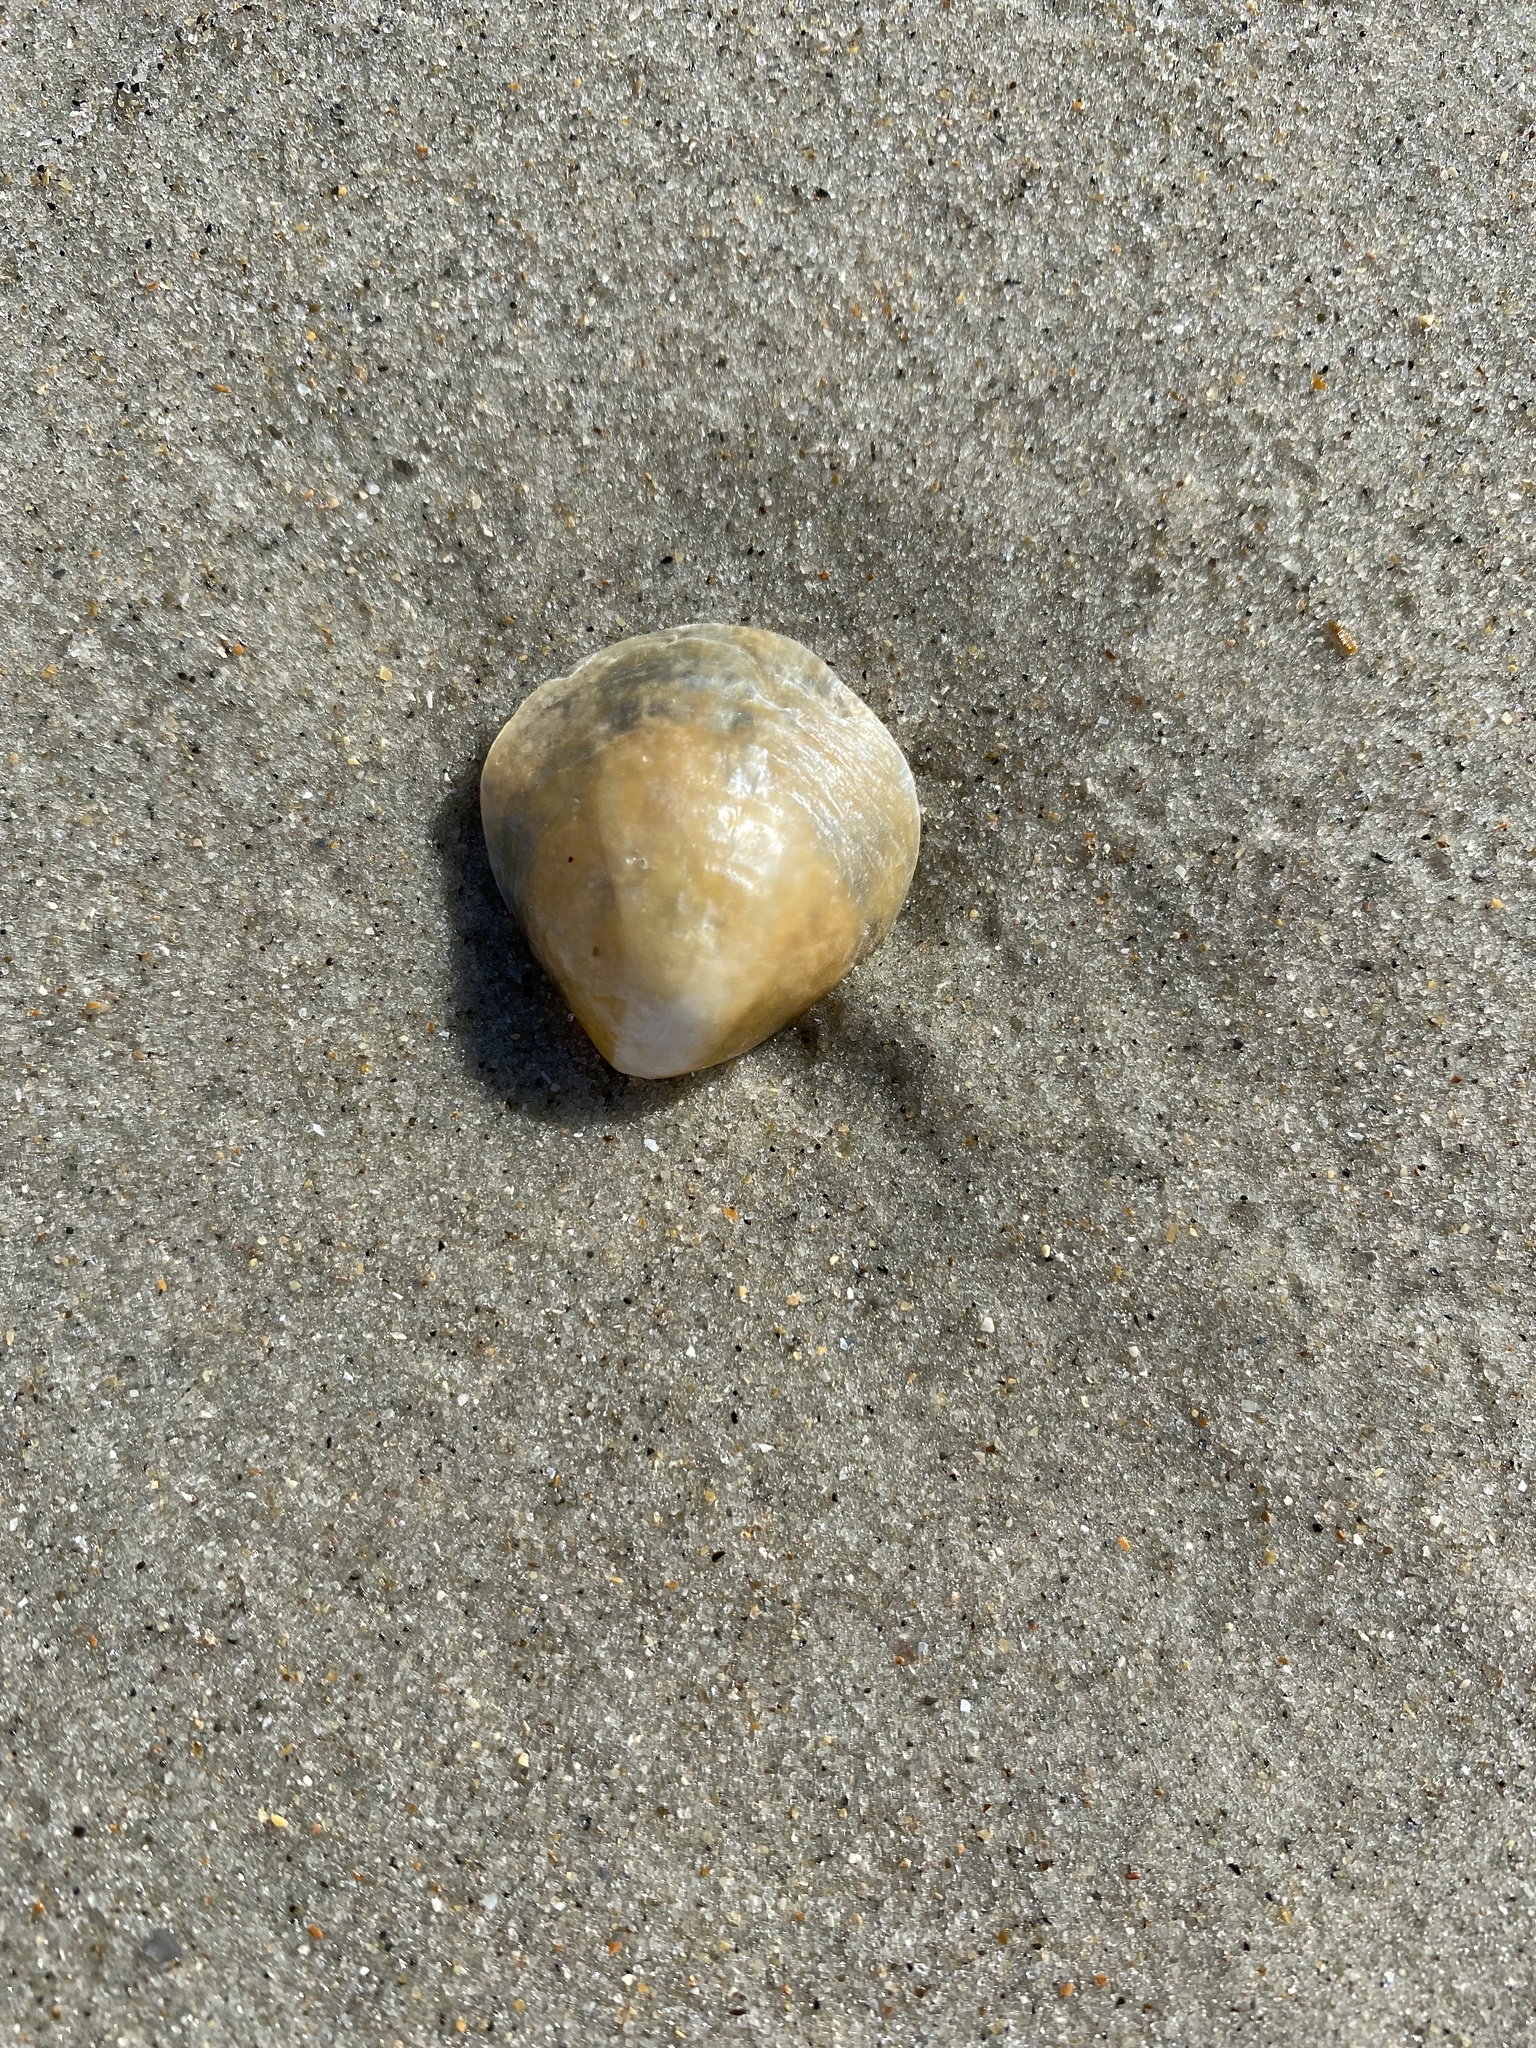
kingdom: Animalia
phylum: Mollusca
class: Bivalvia
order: Pectinida
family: Anomiidae
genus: Anomia
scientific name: Anomia simplex
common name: Common jingle shell
